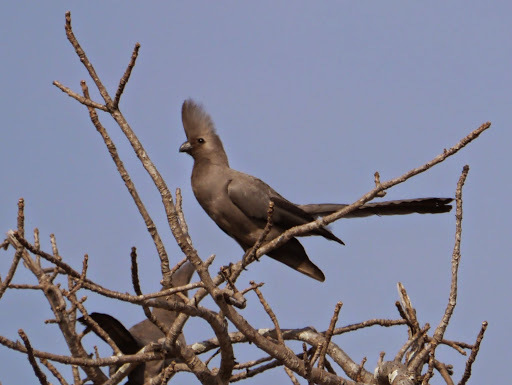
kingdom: Animalia
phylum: Chordata
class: Aves
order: Musophagiformes
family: Musophagidae
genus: Corythaixoides
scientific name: Corythaixoides concolor
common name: Grey go-away-bird
